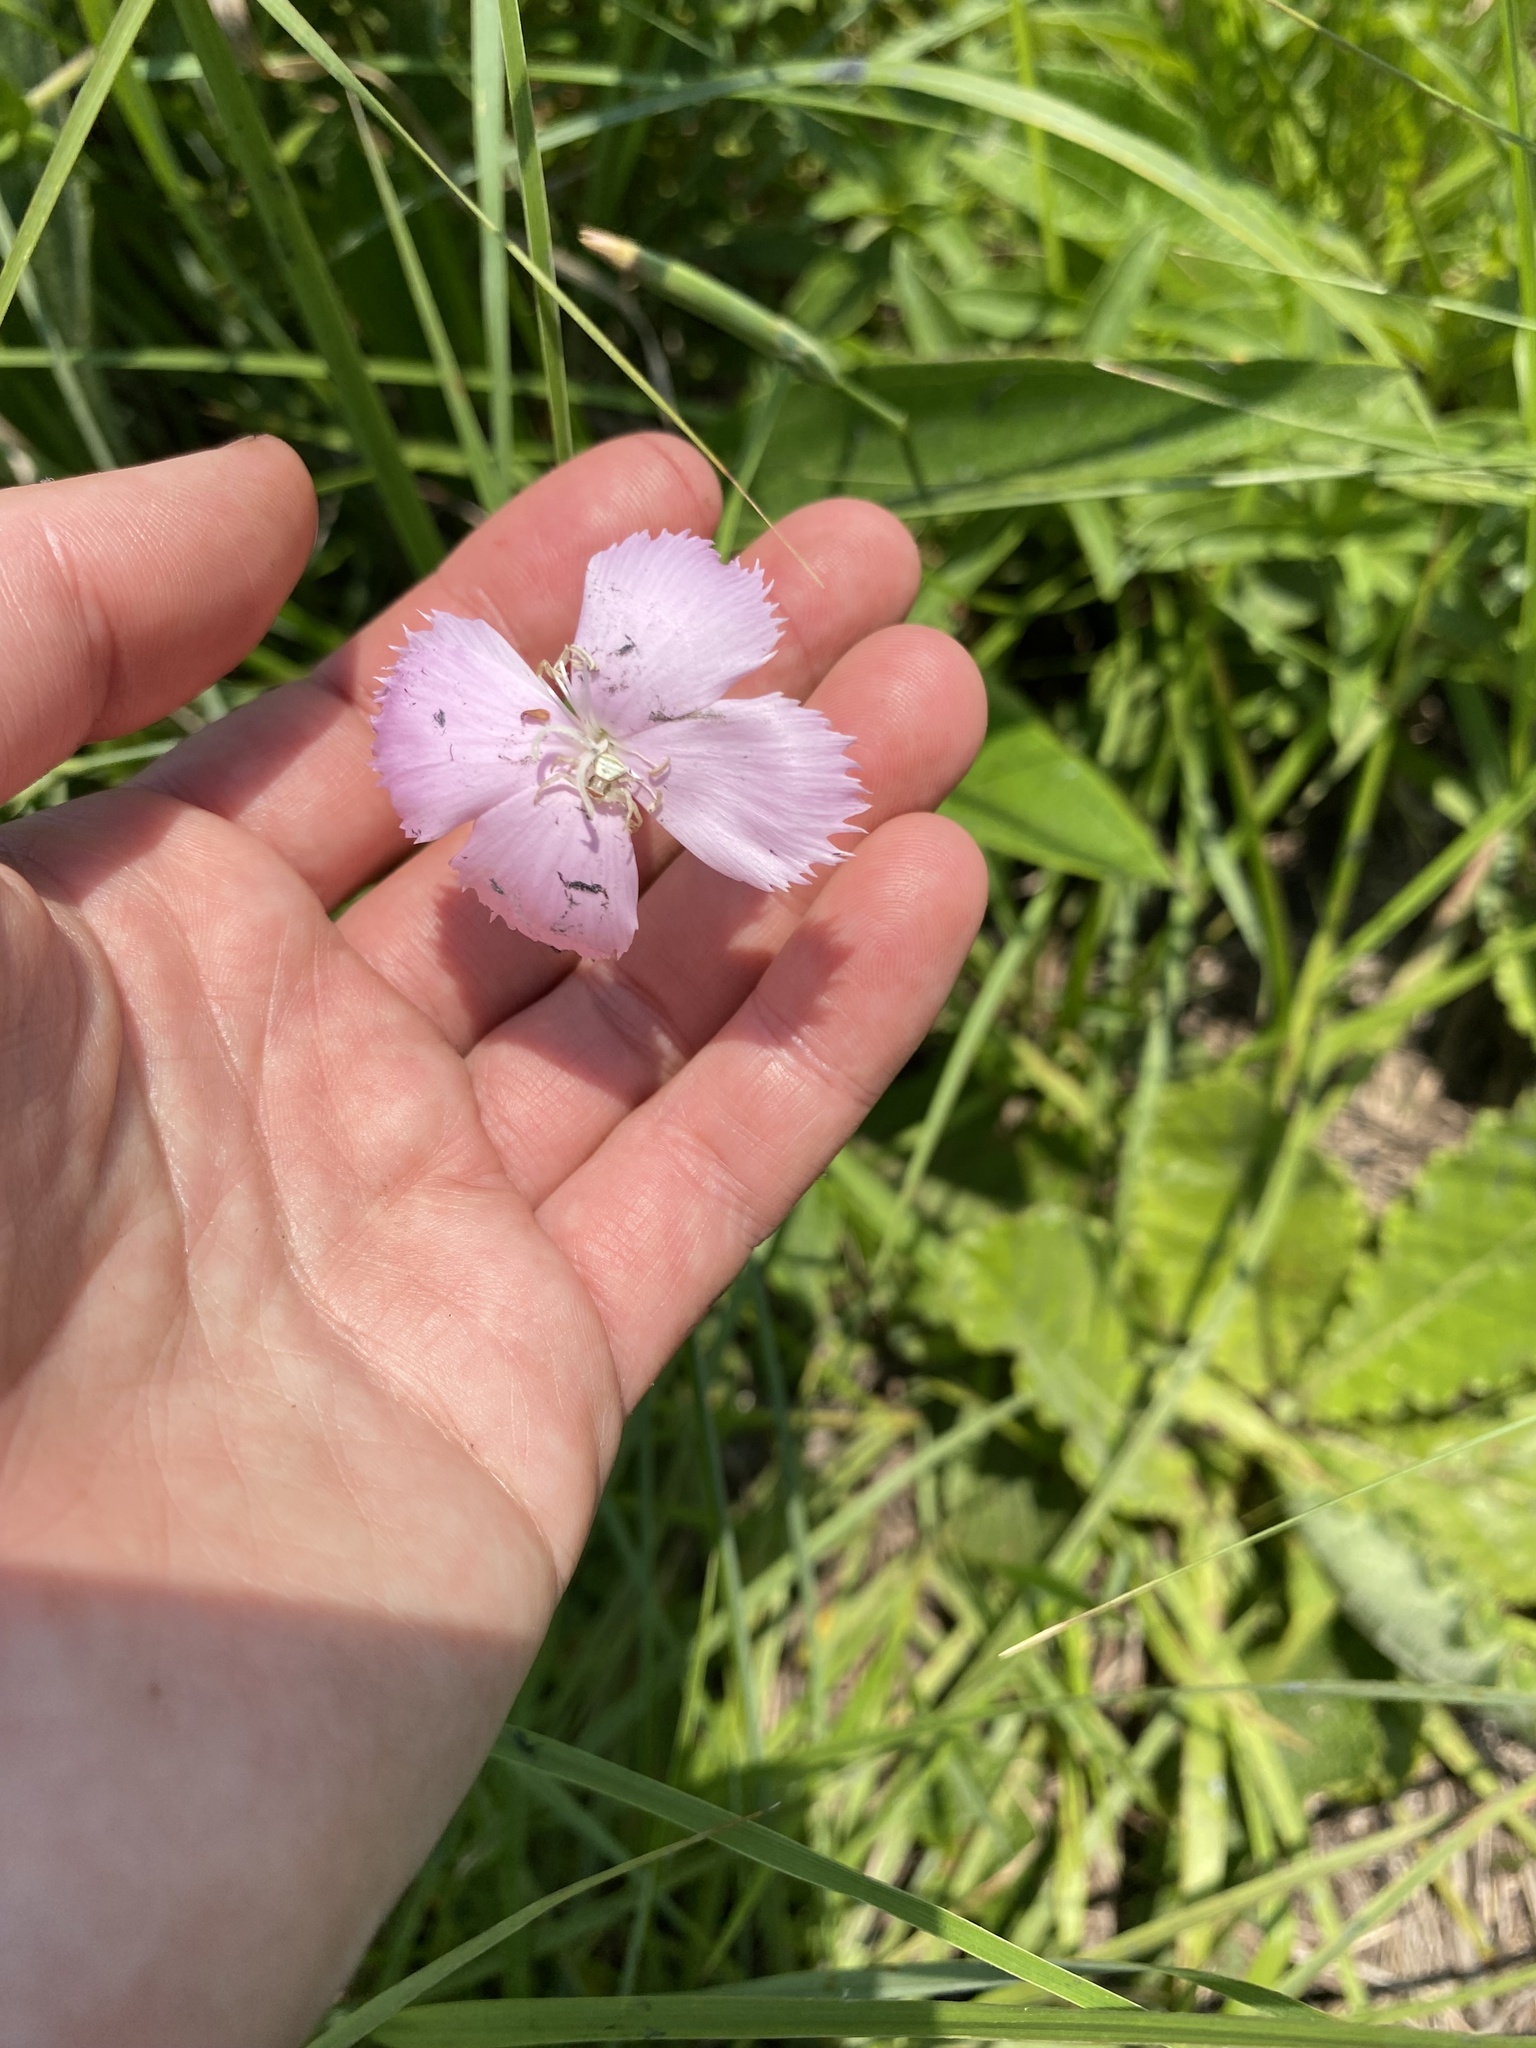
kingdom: Plantae
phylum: Tracheophyta
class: Magnoliopsida
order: Caryophyllales
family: Caryophyllaceae
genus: Dianthus
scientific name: Dianthus zeyheri
